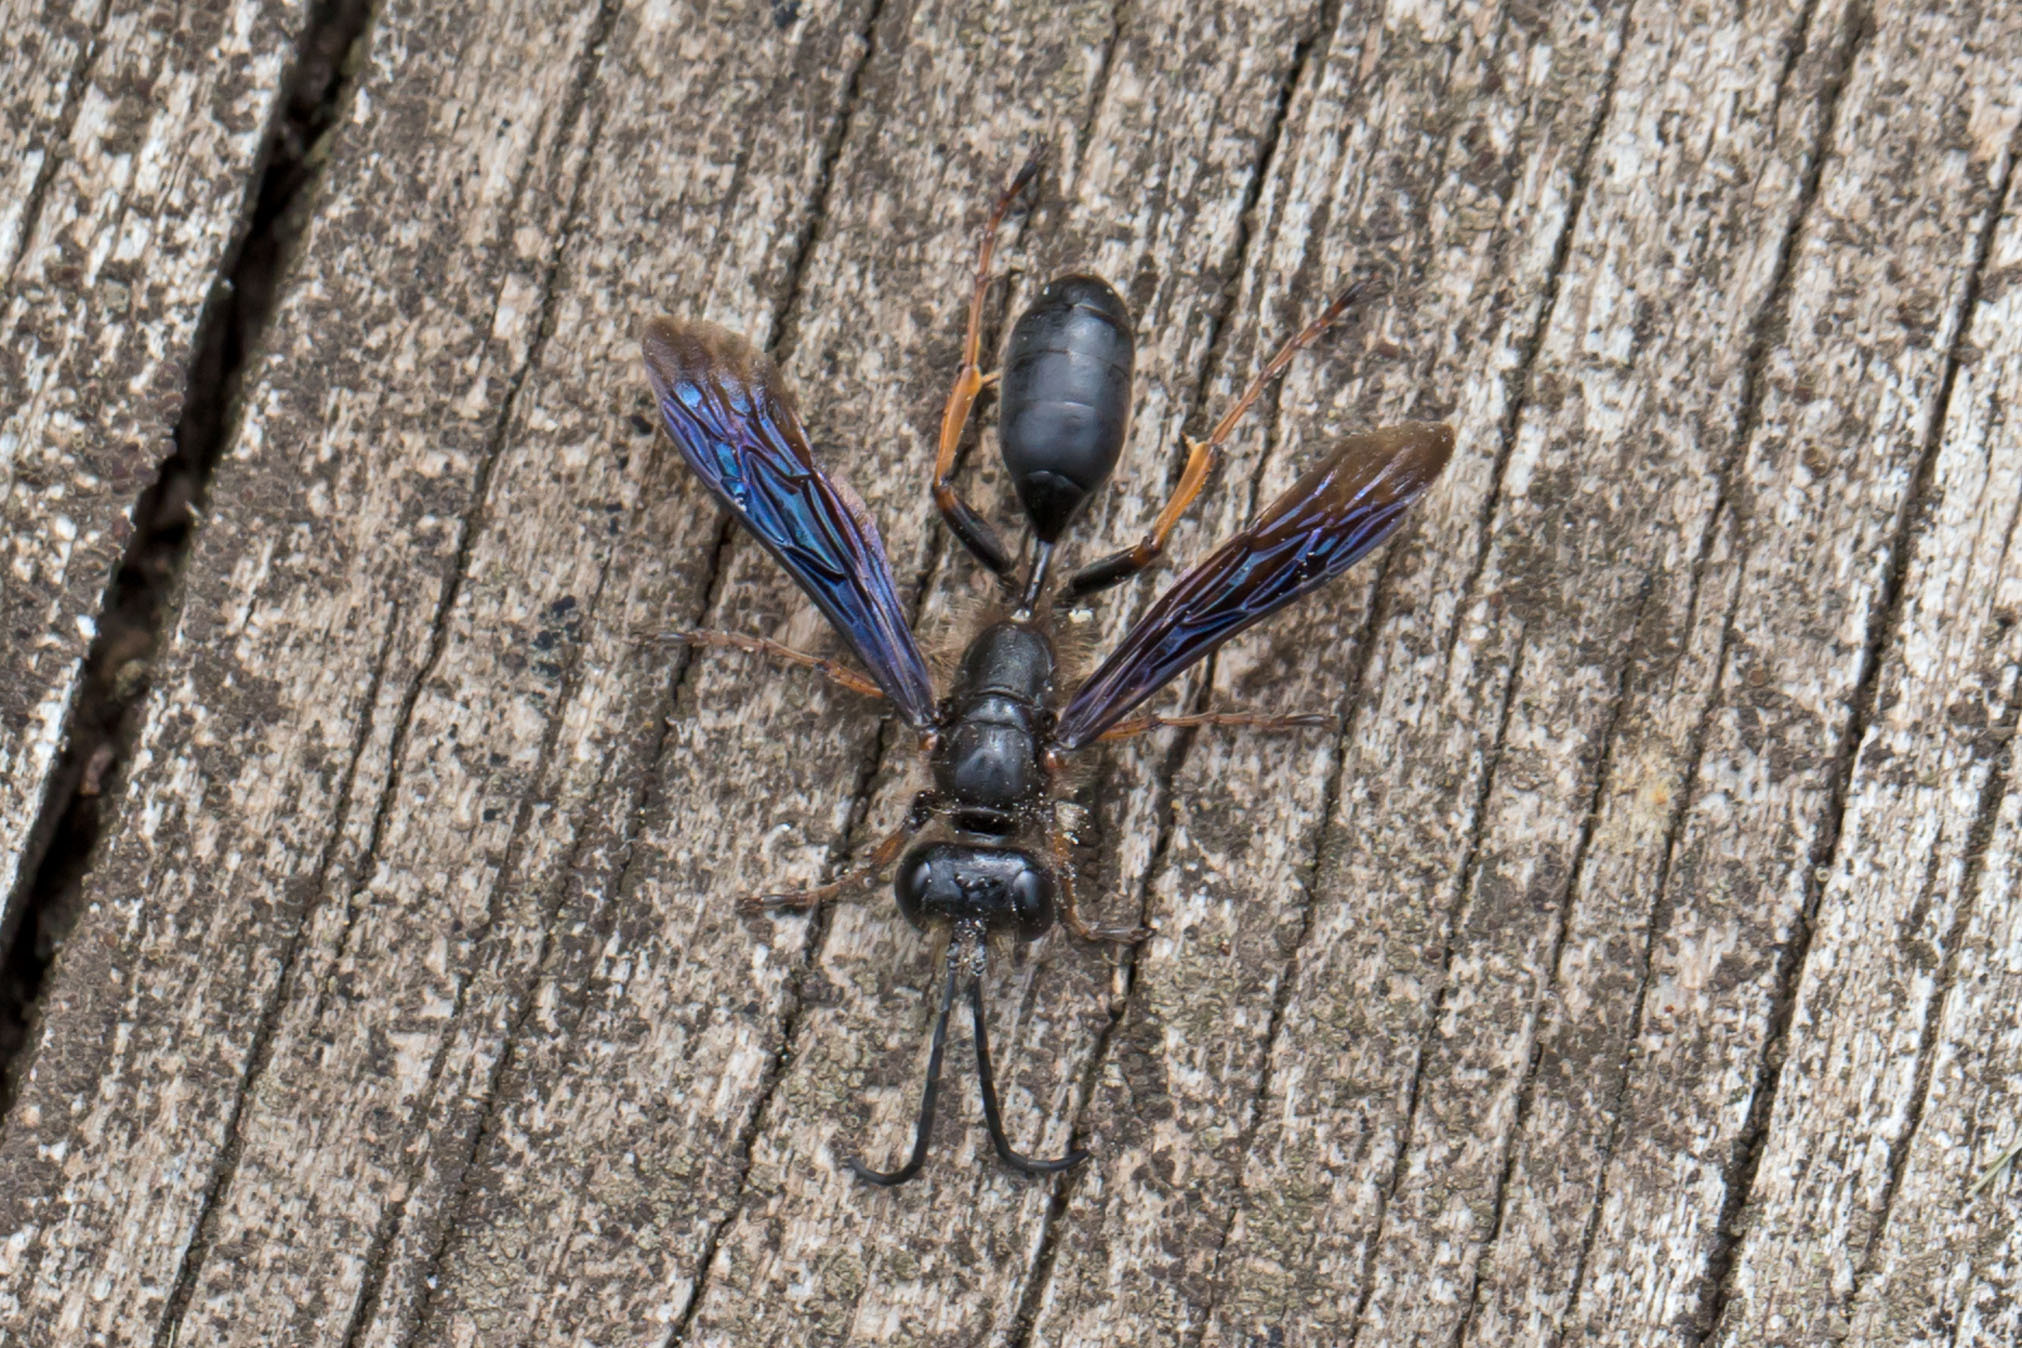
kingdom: Animalia
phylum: Arthropoda
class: Insecta
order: Hymenoptera
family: Sphecidae
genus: Isodontia
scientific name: Isodontia auripes
